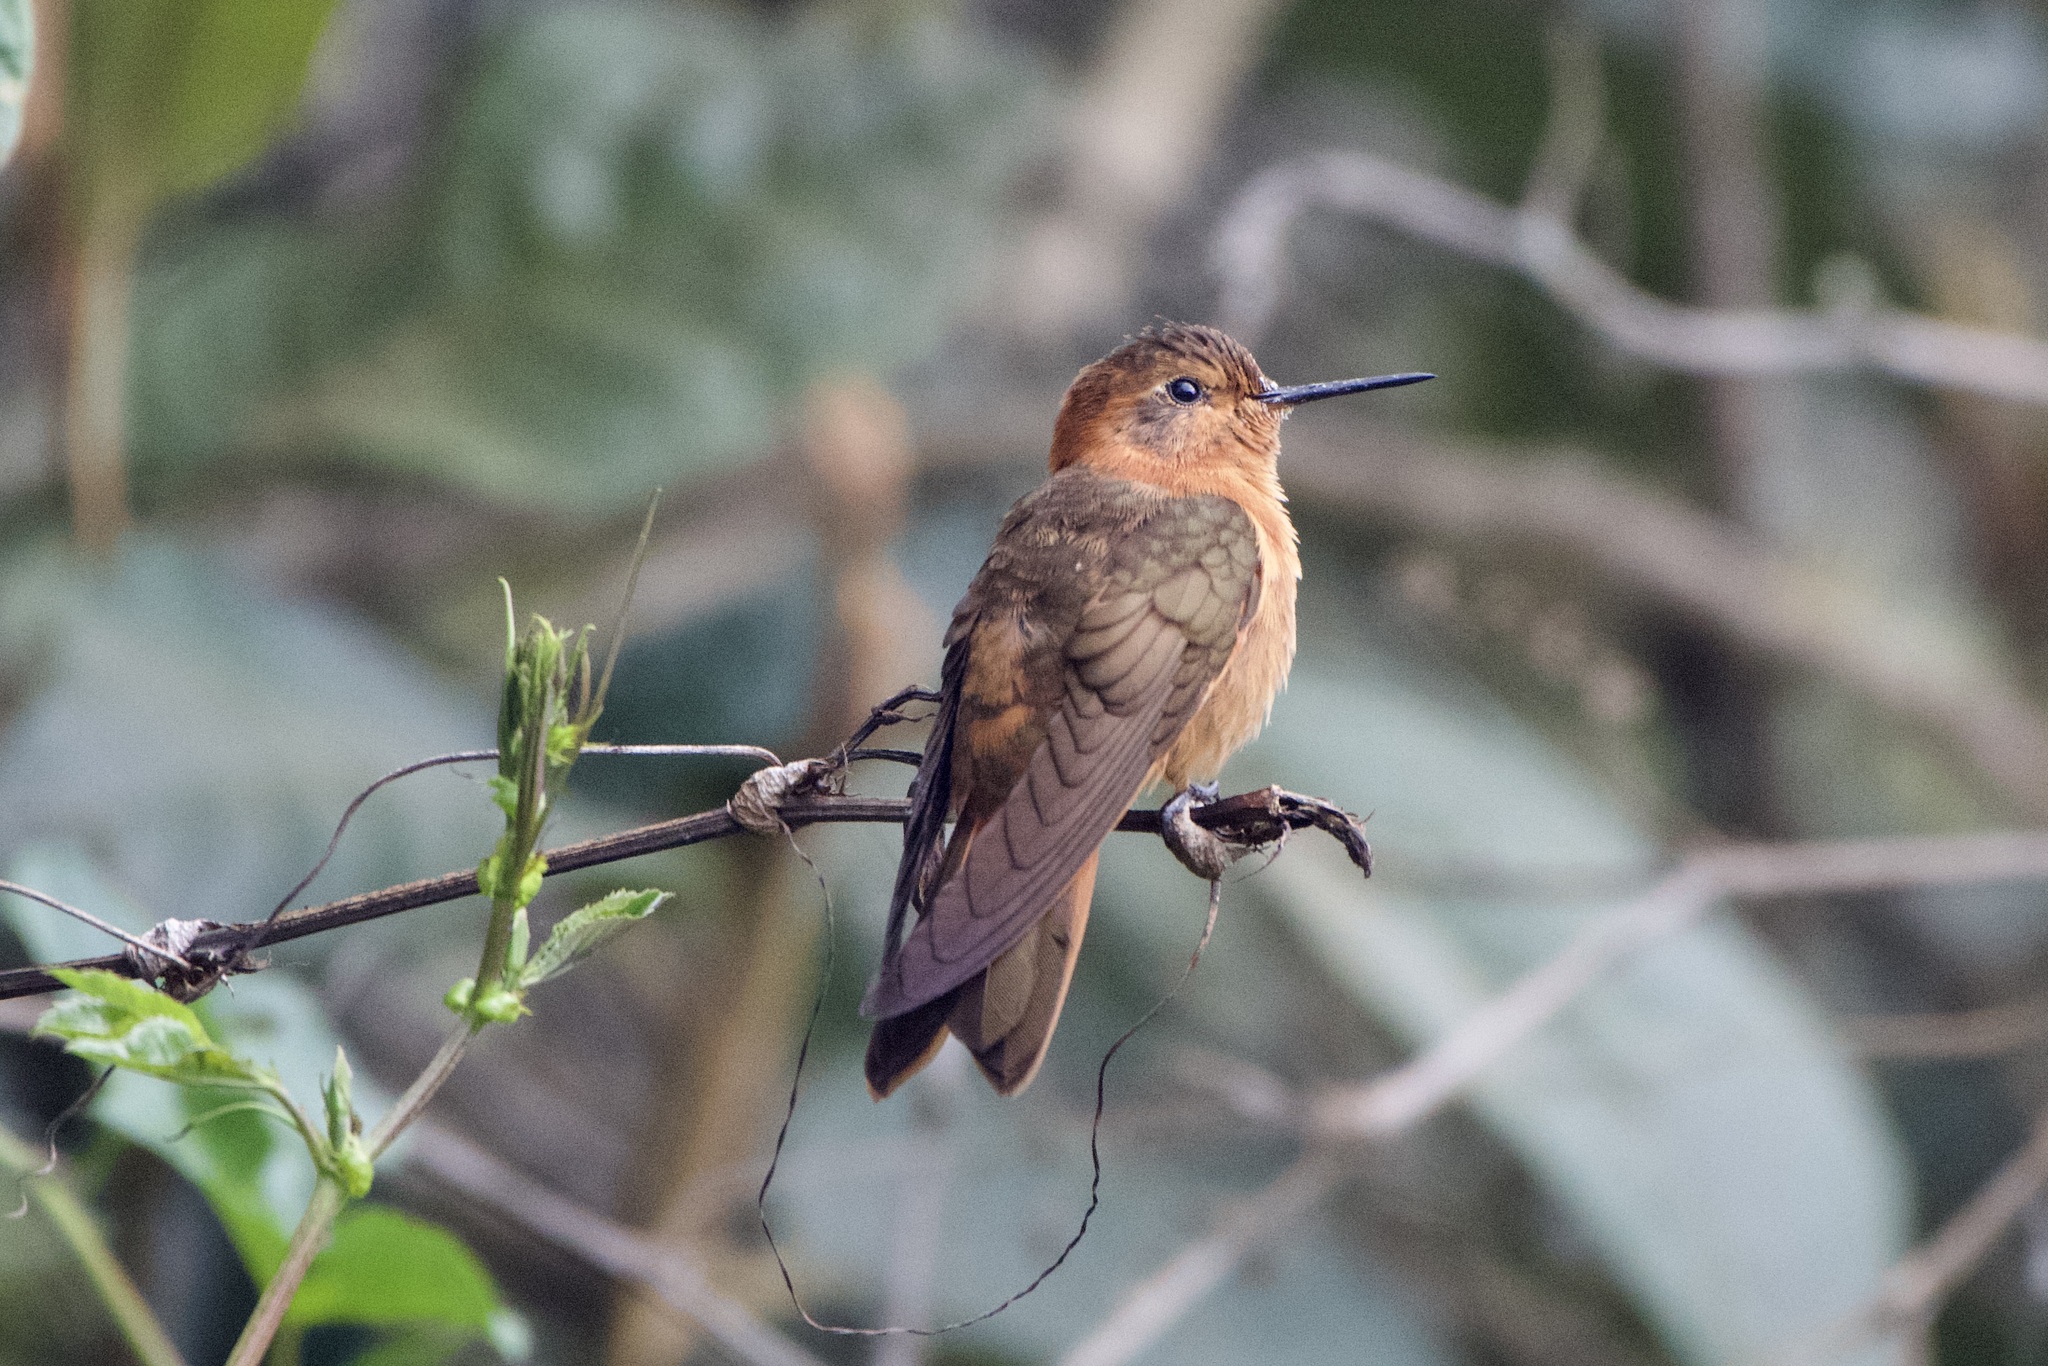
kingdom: Animalia
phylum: Chordata
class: Aves
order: Apodiformes
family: Trochilidae
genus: Aglaeactis
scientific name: Aglaeactis cupripennis
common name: Shining sunbeam
